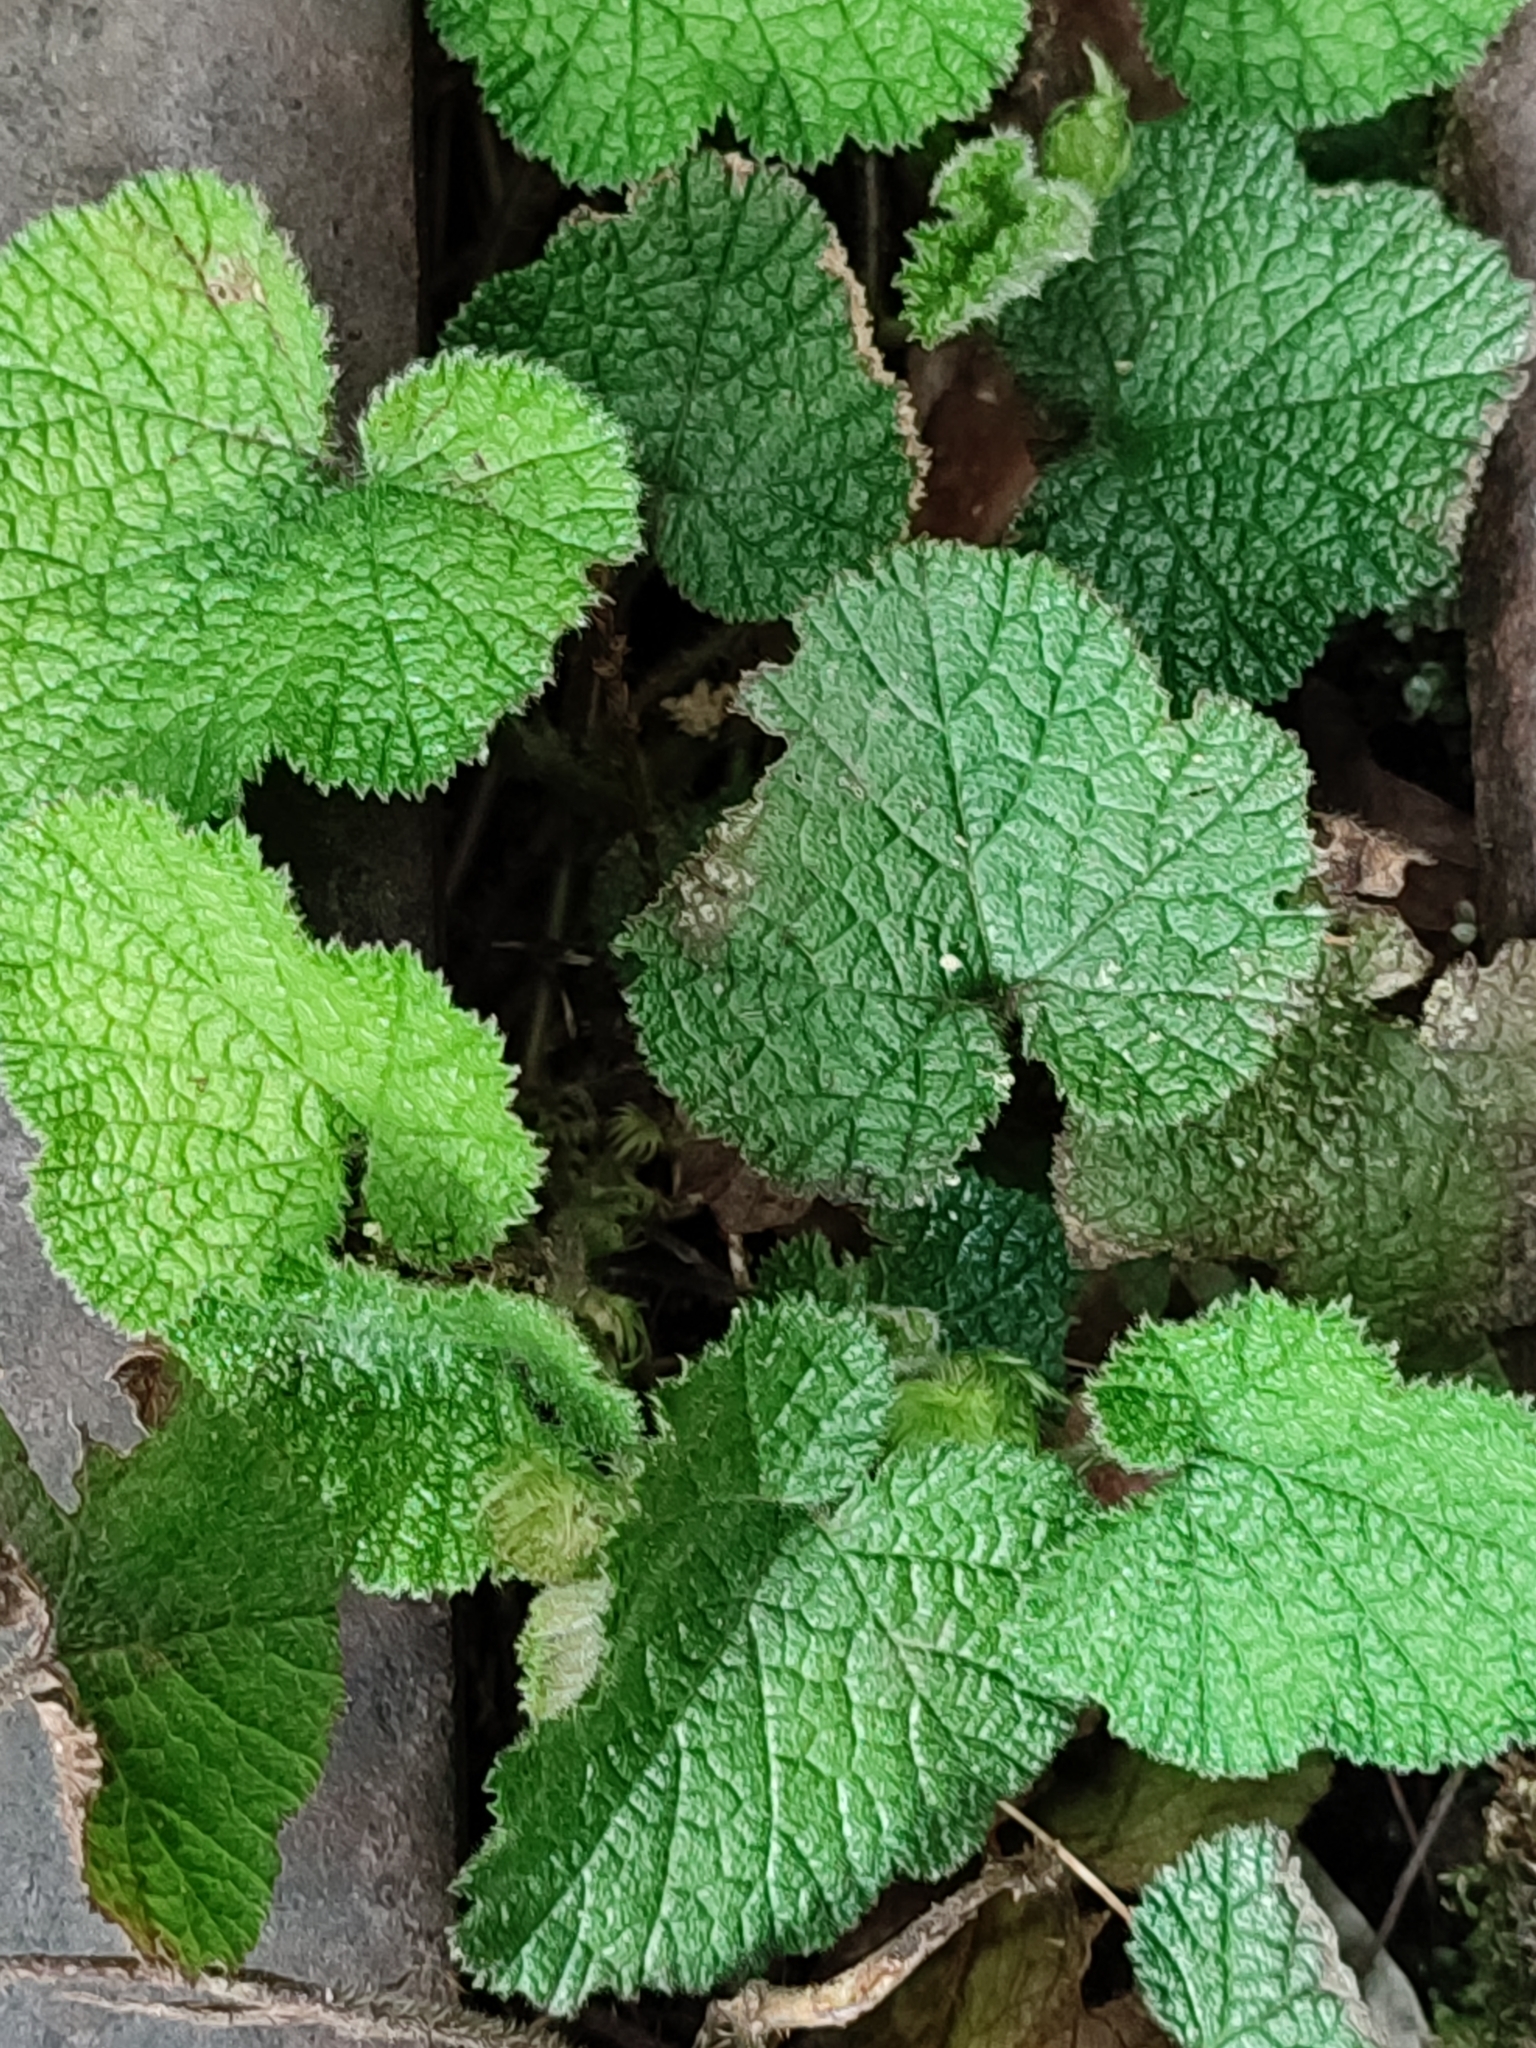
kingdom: Plantae
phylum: Tracheophyta
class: Magnoliopsida
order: Rosales
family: Rosaceae
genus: Rubus
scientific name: Rubus pectinellus
